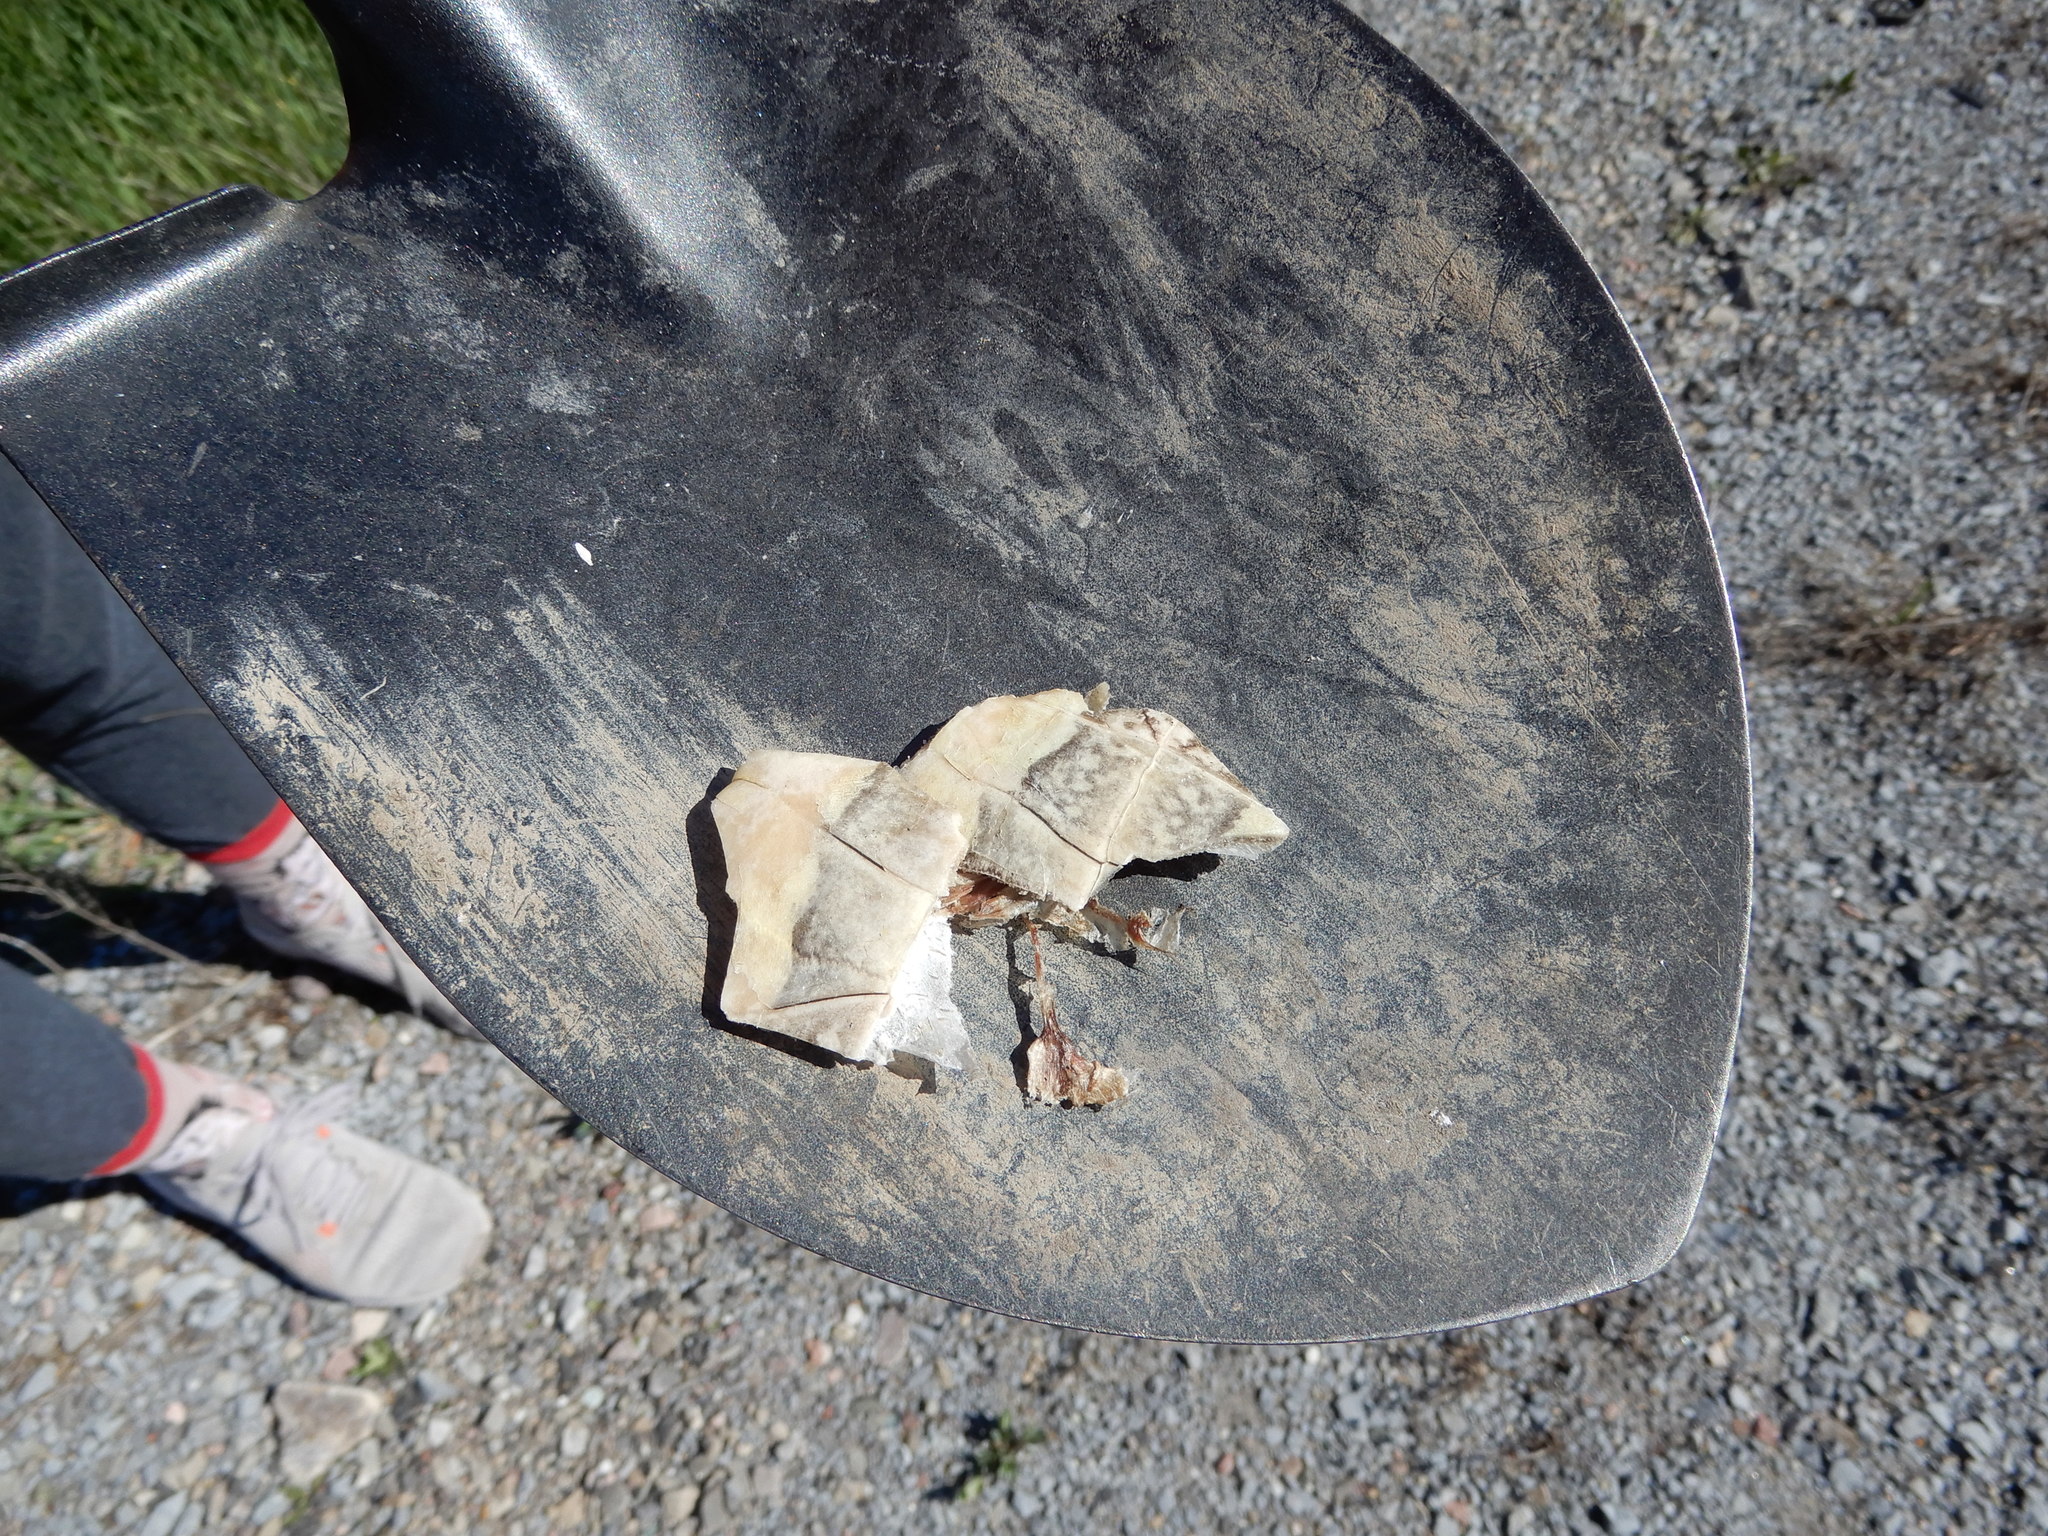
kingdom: Animalia
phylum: Chordata
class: Testudines
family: Emydidae
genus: Chrysemys
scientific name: Chrysemys picta
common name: Painted turtle
